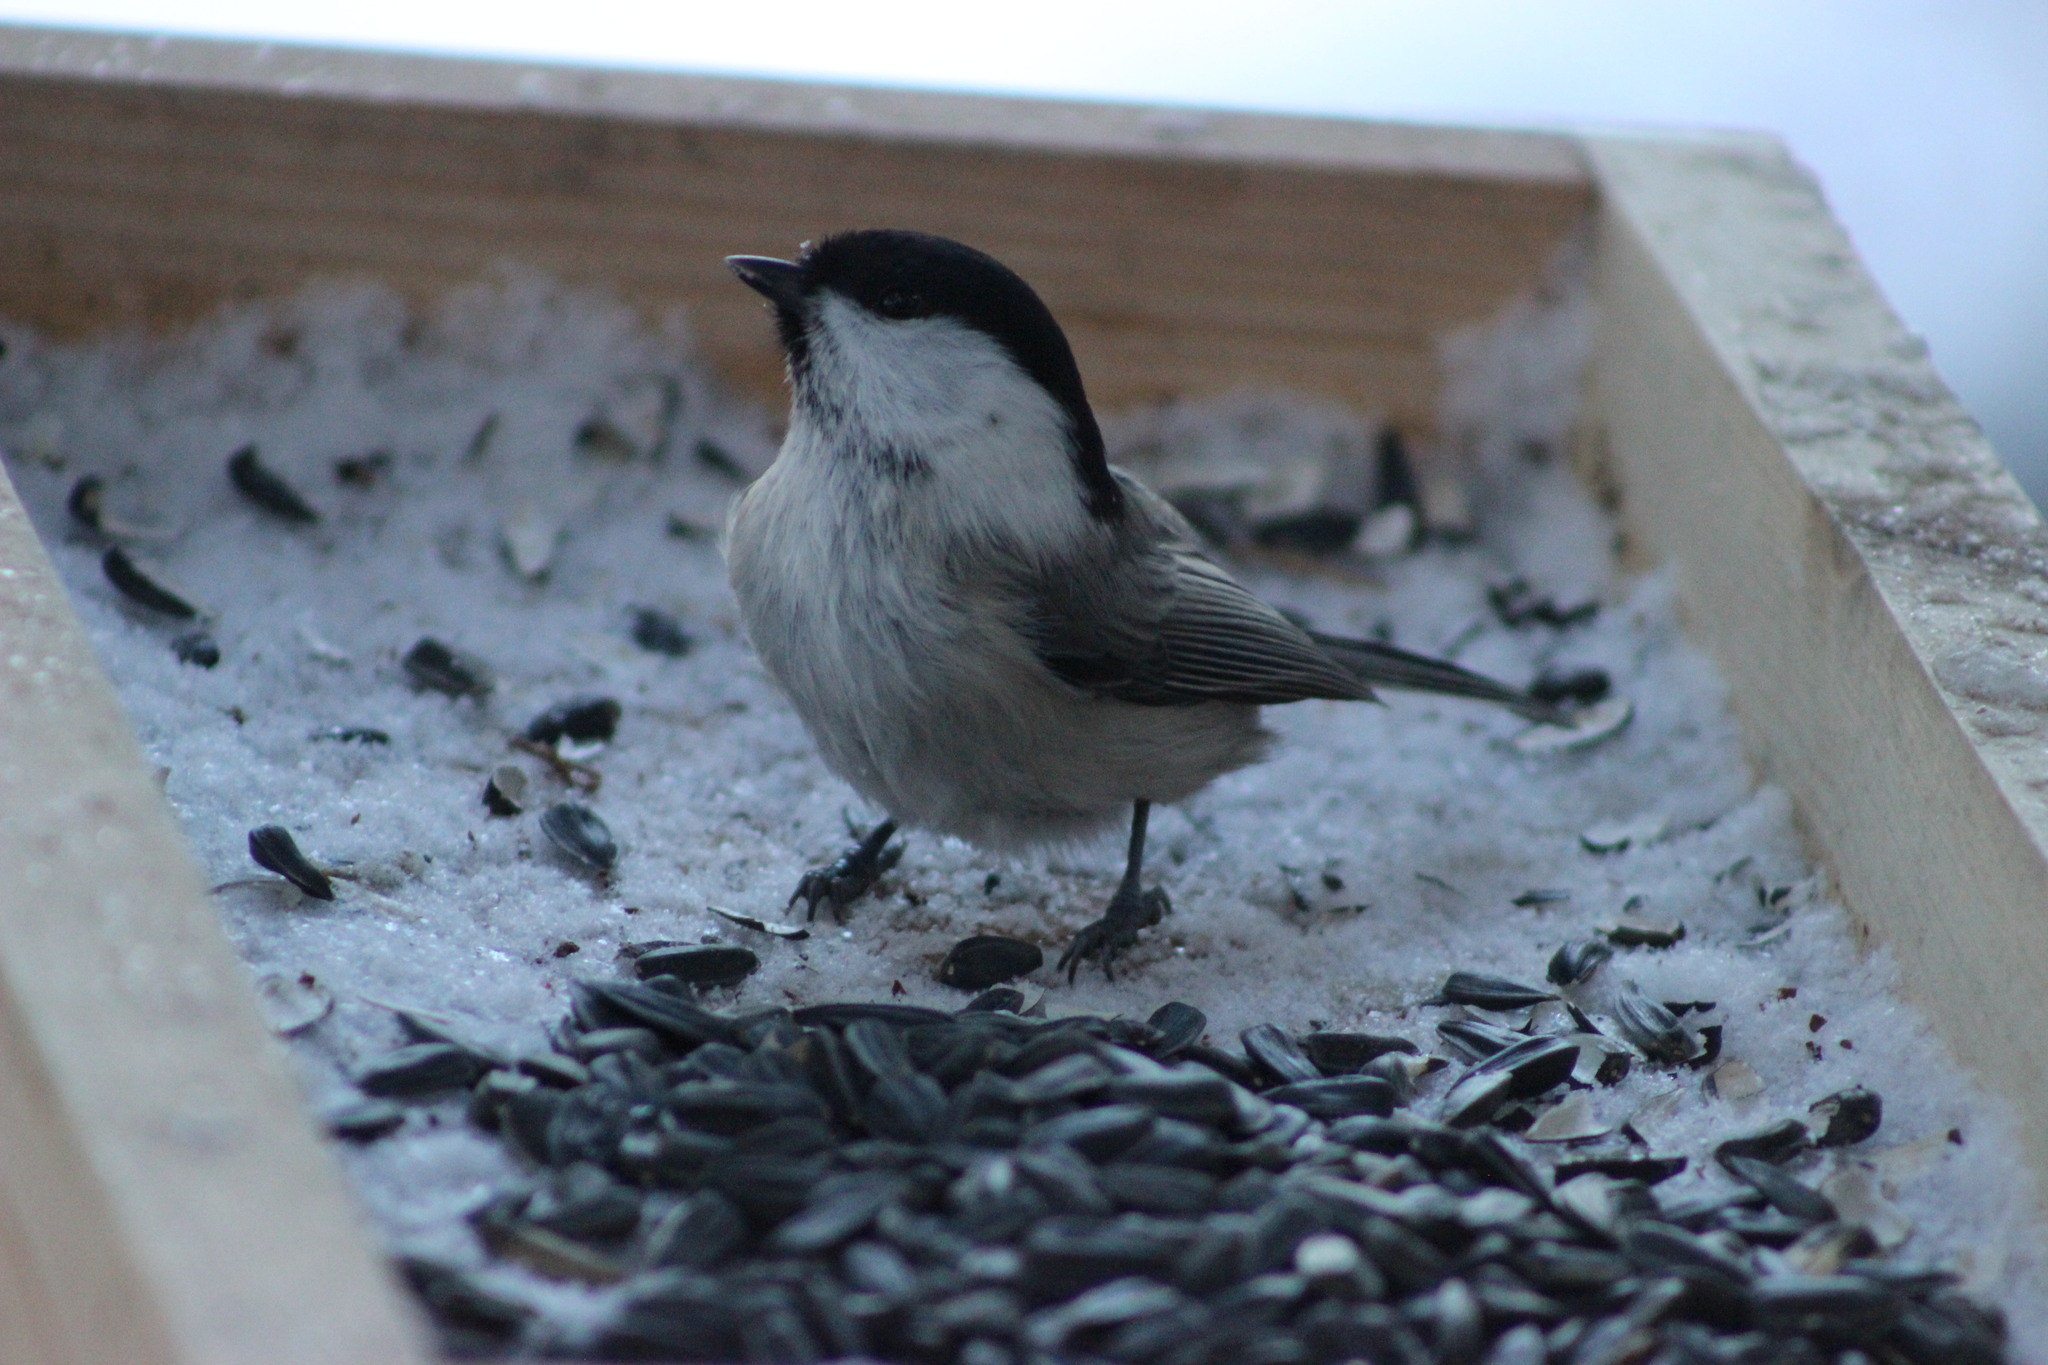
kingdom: Animalia
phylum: Chordata
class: Aves
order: Passeriformes
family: Paridae
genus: Poecile
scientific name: Poecile montanus
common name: Willow tit
